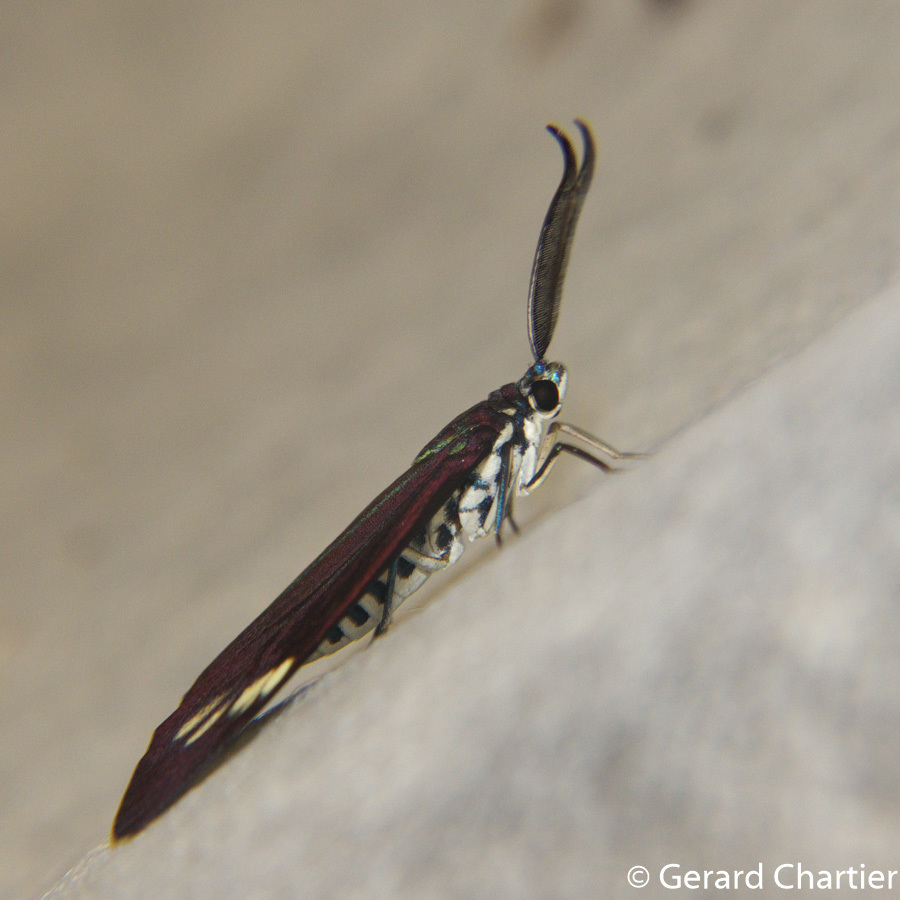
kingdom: Animalia
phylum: Arthropoda
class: Insecta
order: Lepidoptera
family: Zygaenidae
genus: Cyclosia
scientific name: Cyclosia papilionaris
